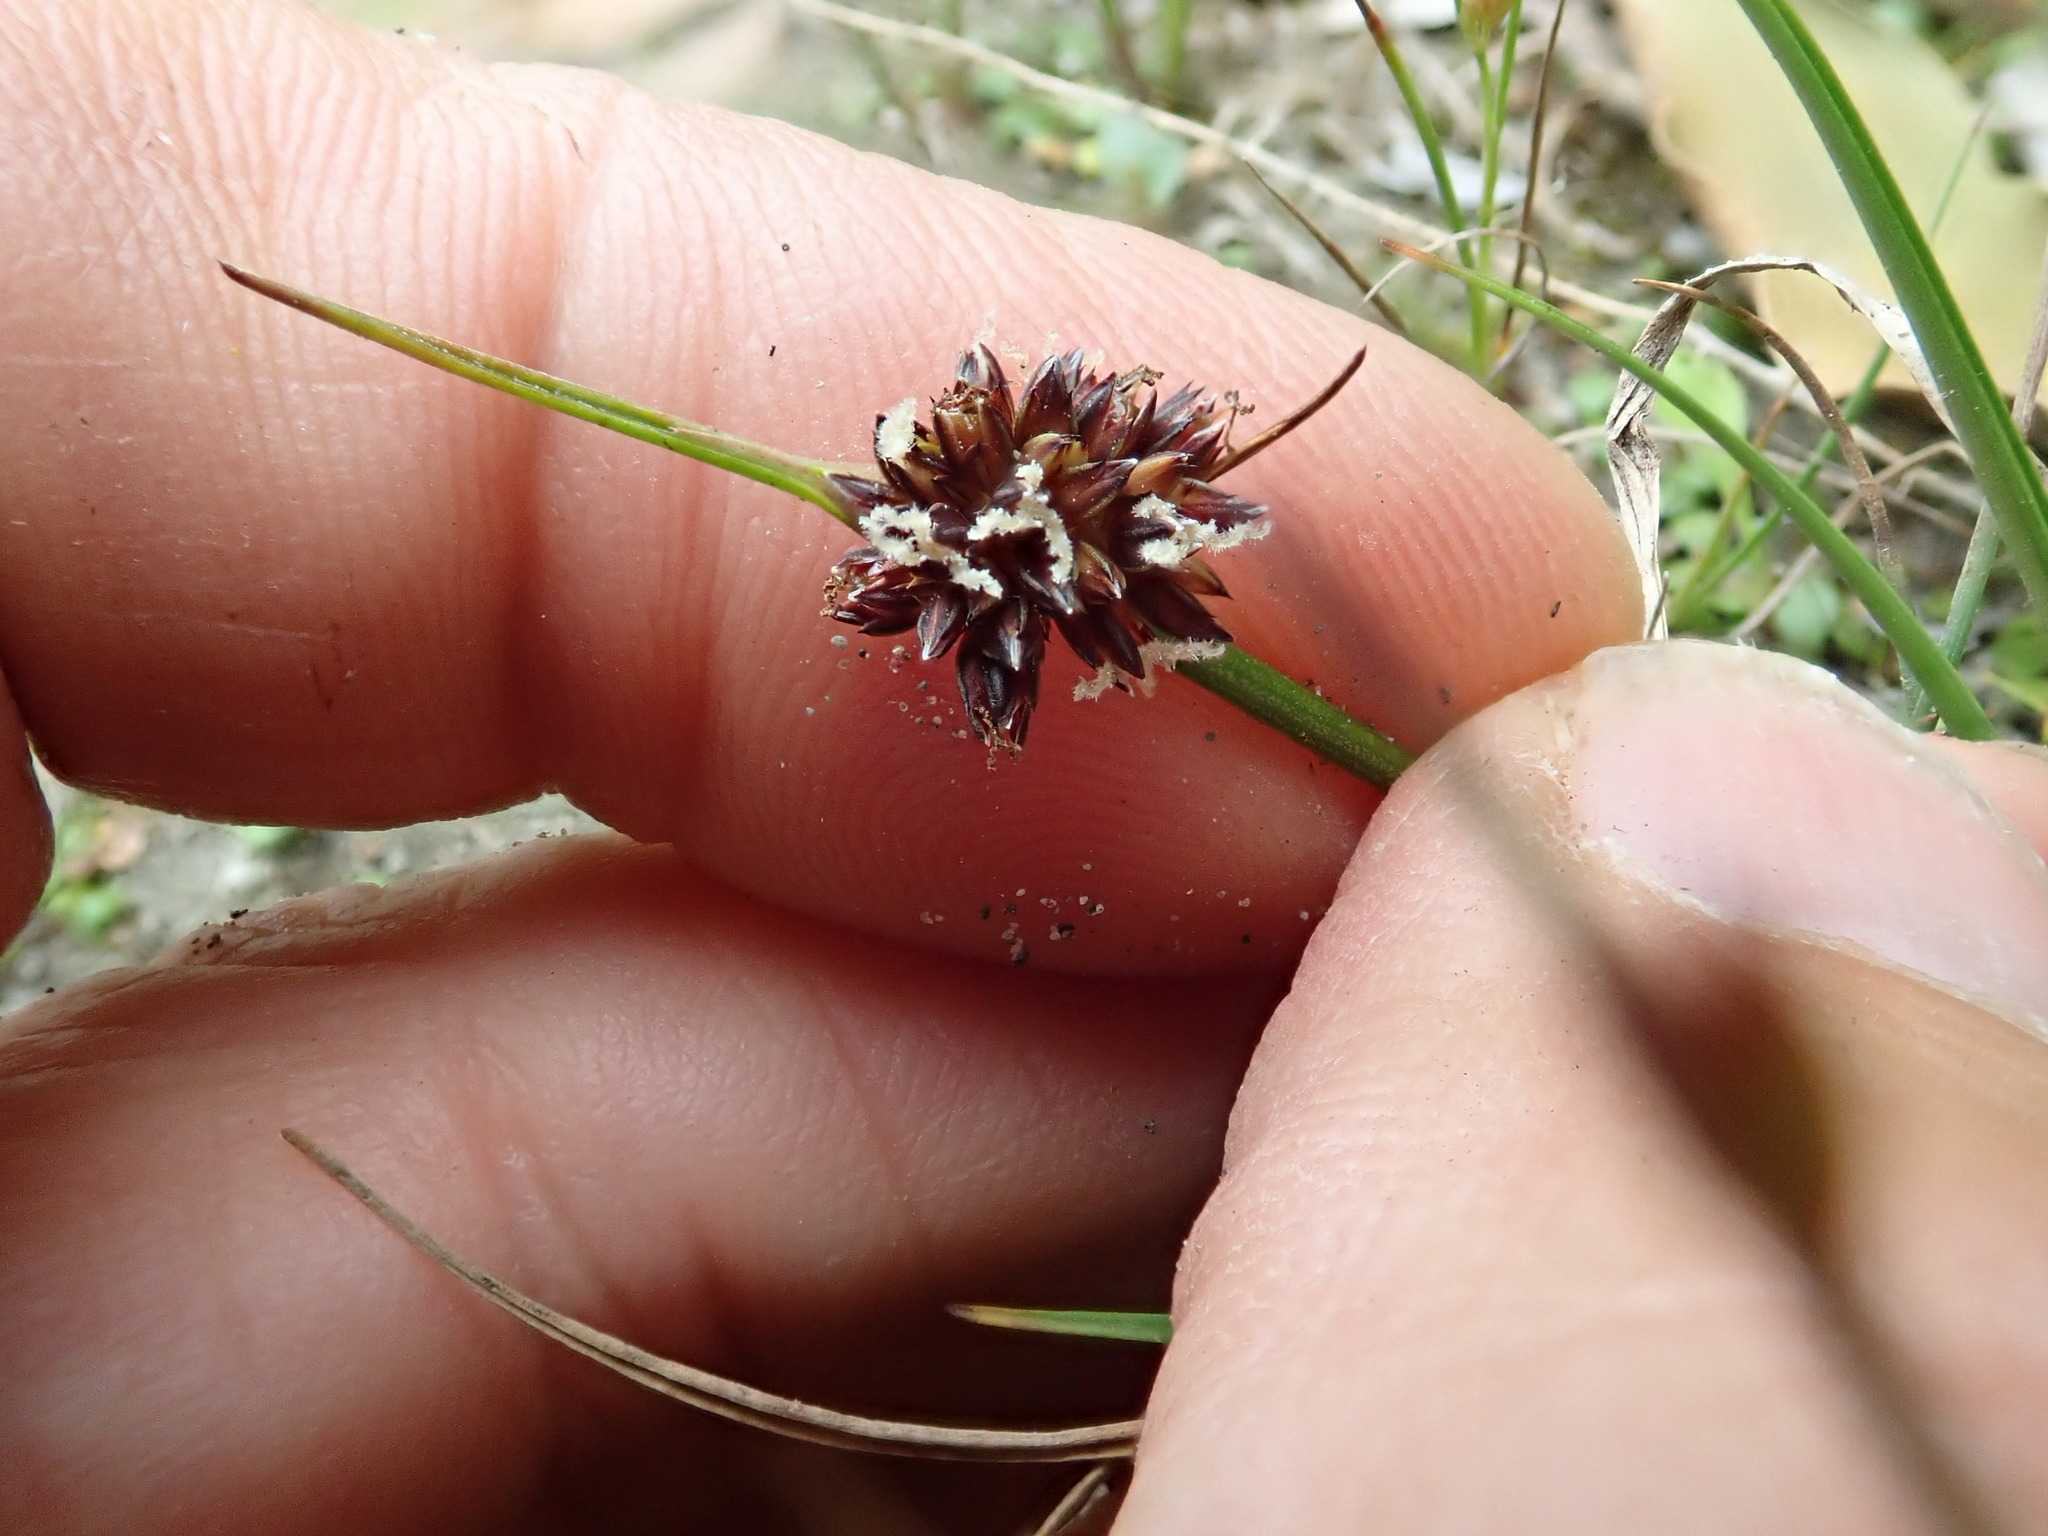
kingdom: Plantae
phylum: Tracheophyta
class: Liliopsida
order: Poales
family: Juncaceae
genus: Juncus
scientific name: Juncus caespiticius
